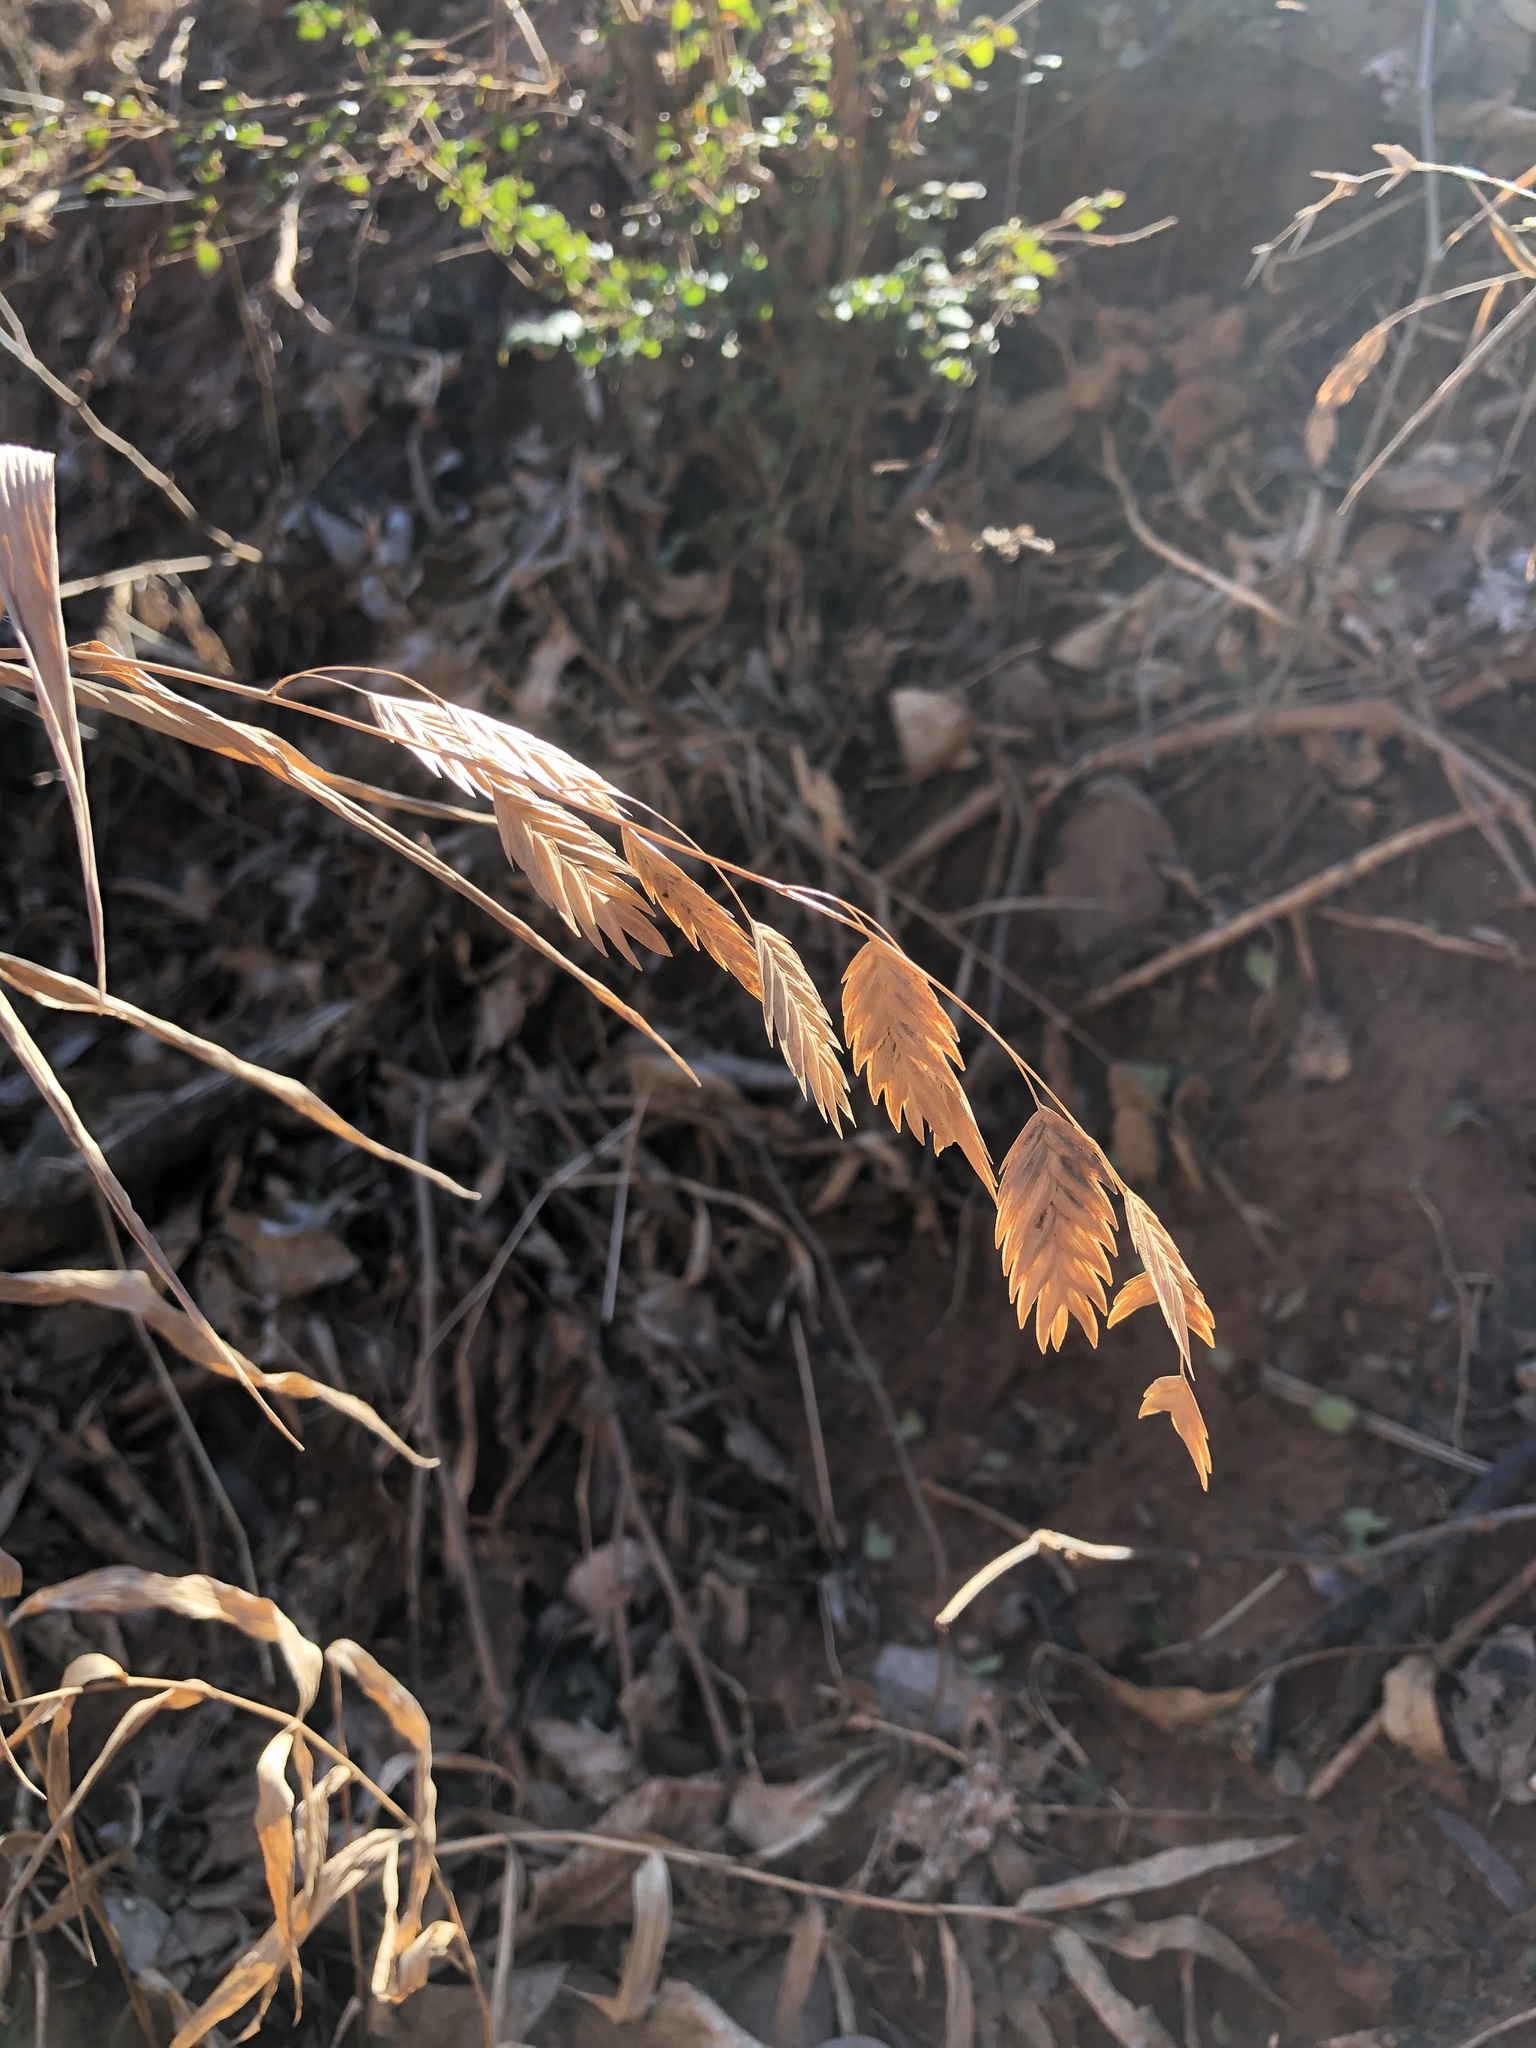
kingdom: Plantae
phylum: Tracheophyta
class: Liliopsida
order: Poales
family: Poaceae
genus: Chasmanthium
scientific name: Chasmanthium latifolium
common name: Broad-leaved chasmanthium
